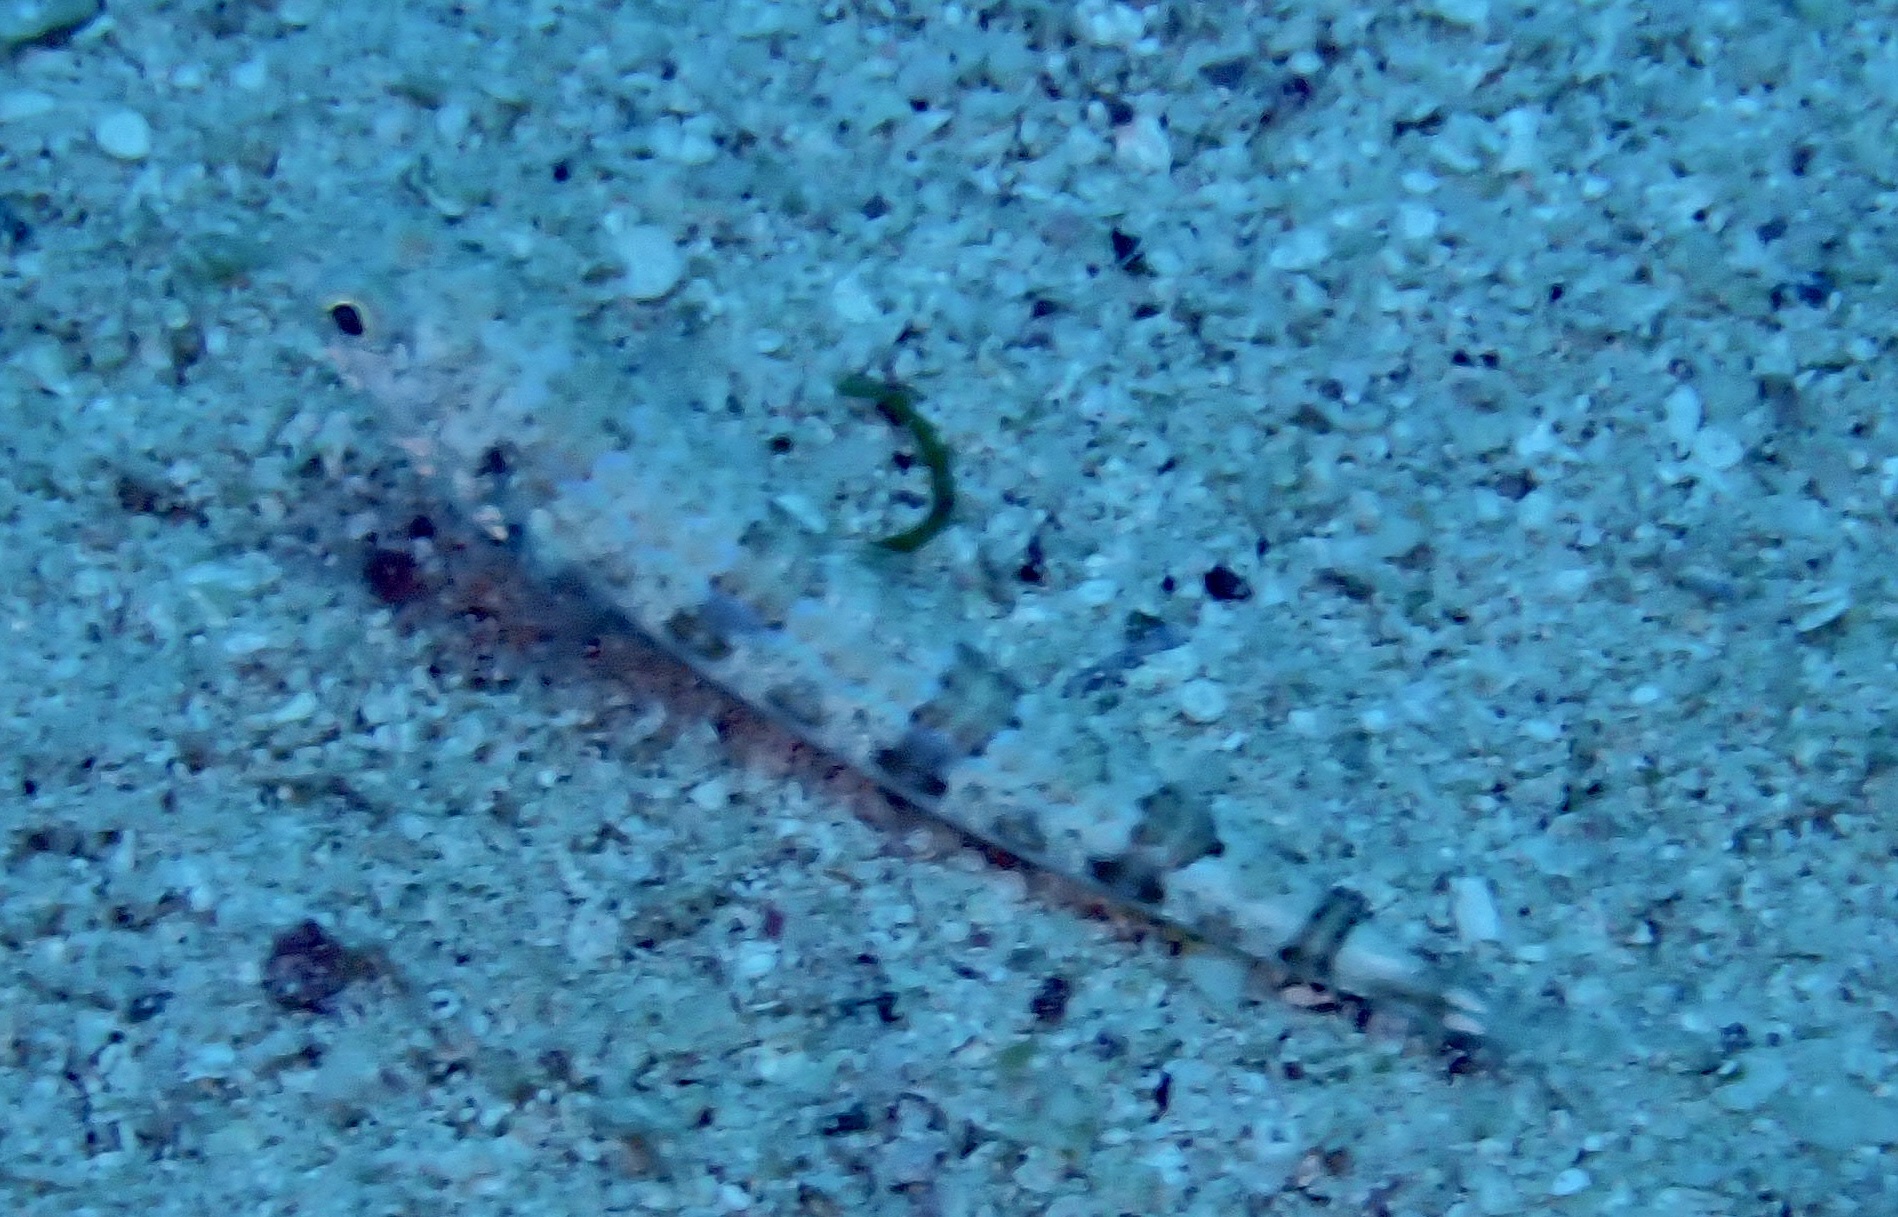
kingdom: Animalia
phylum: Chordata
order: Aulopiformes
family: Synodontidae
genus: Synodus
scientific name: Synodus variegatus
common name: Variegated lizardfish
